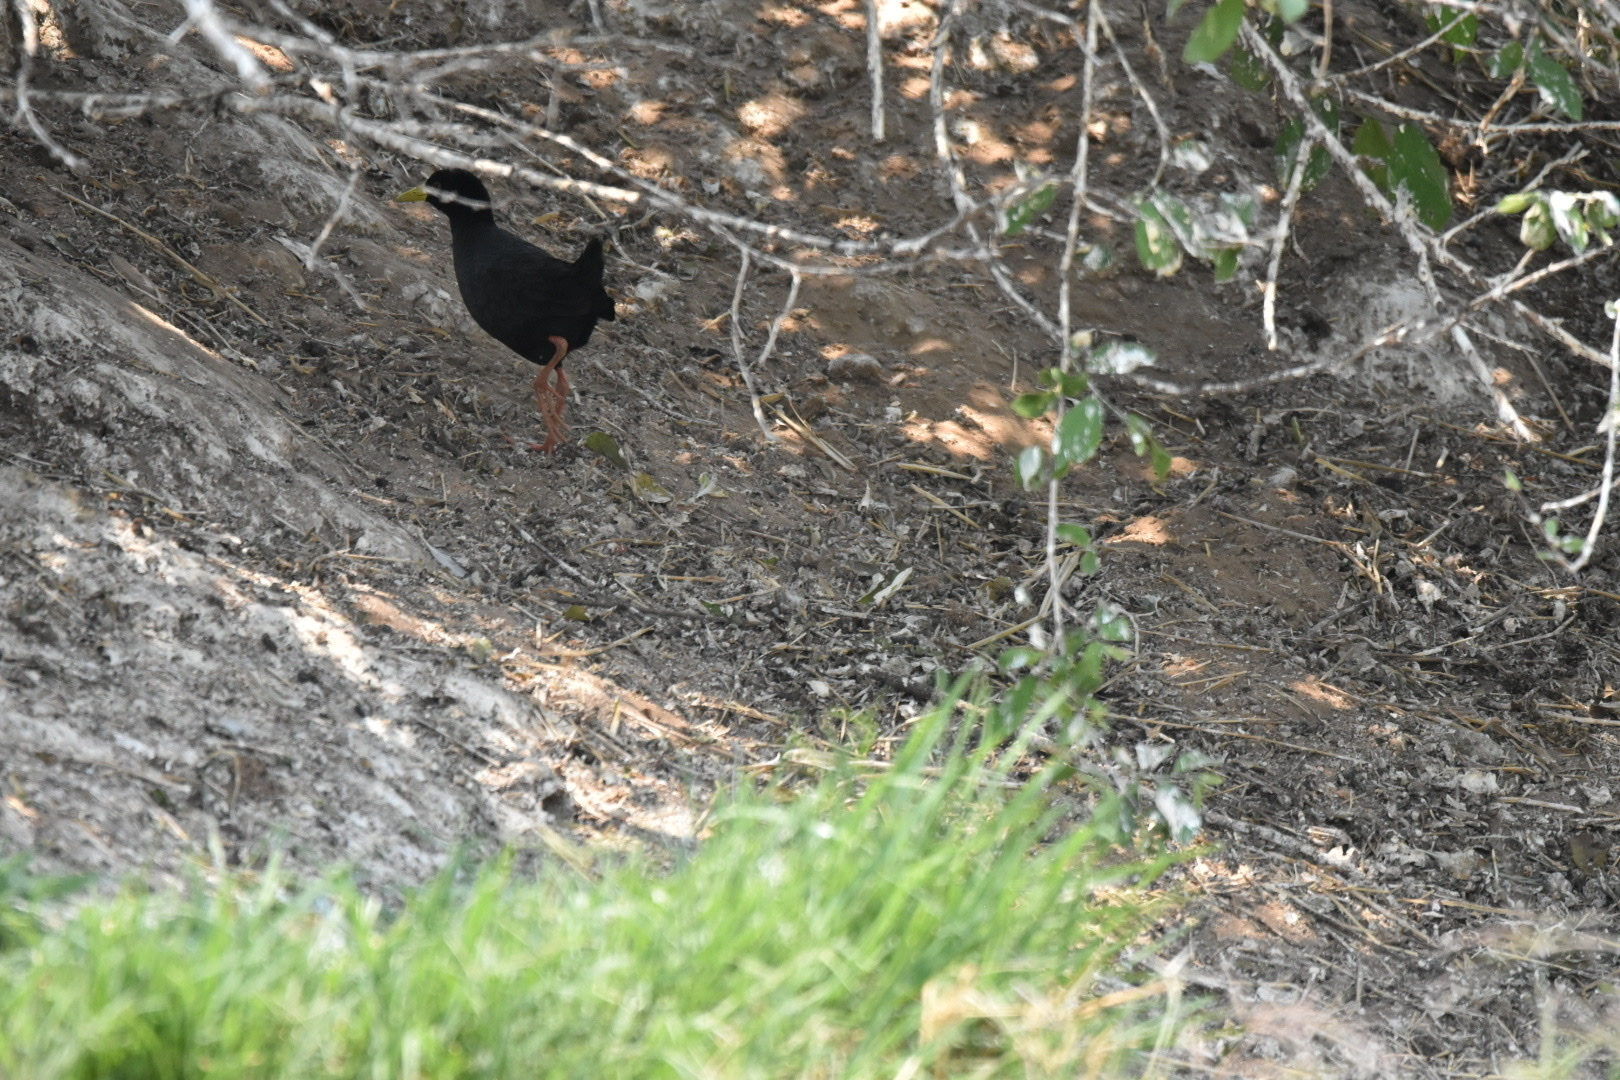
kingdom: Animalia
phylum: Chordata
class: Aves
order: Gruiformes
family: Rallidae
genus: Amaurornis
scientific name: Amaurornis flavirostra
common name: Black crake
